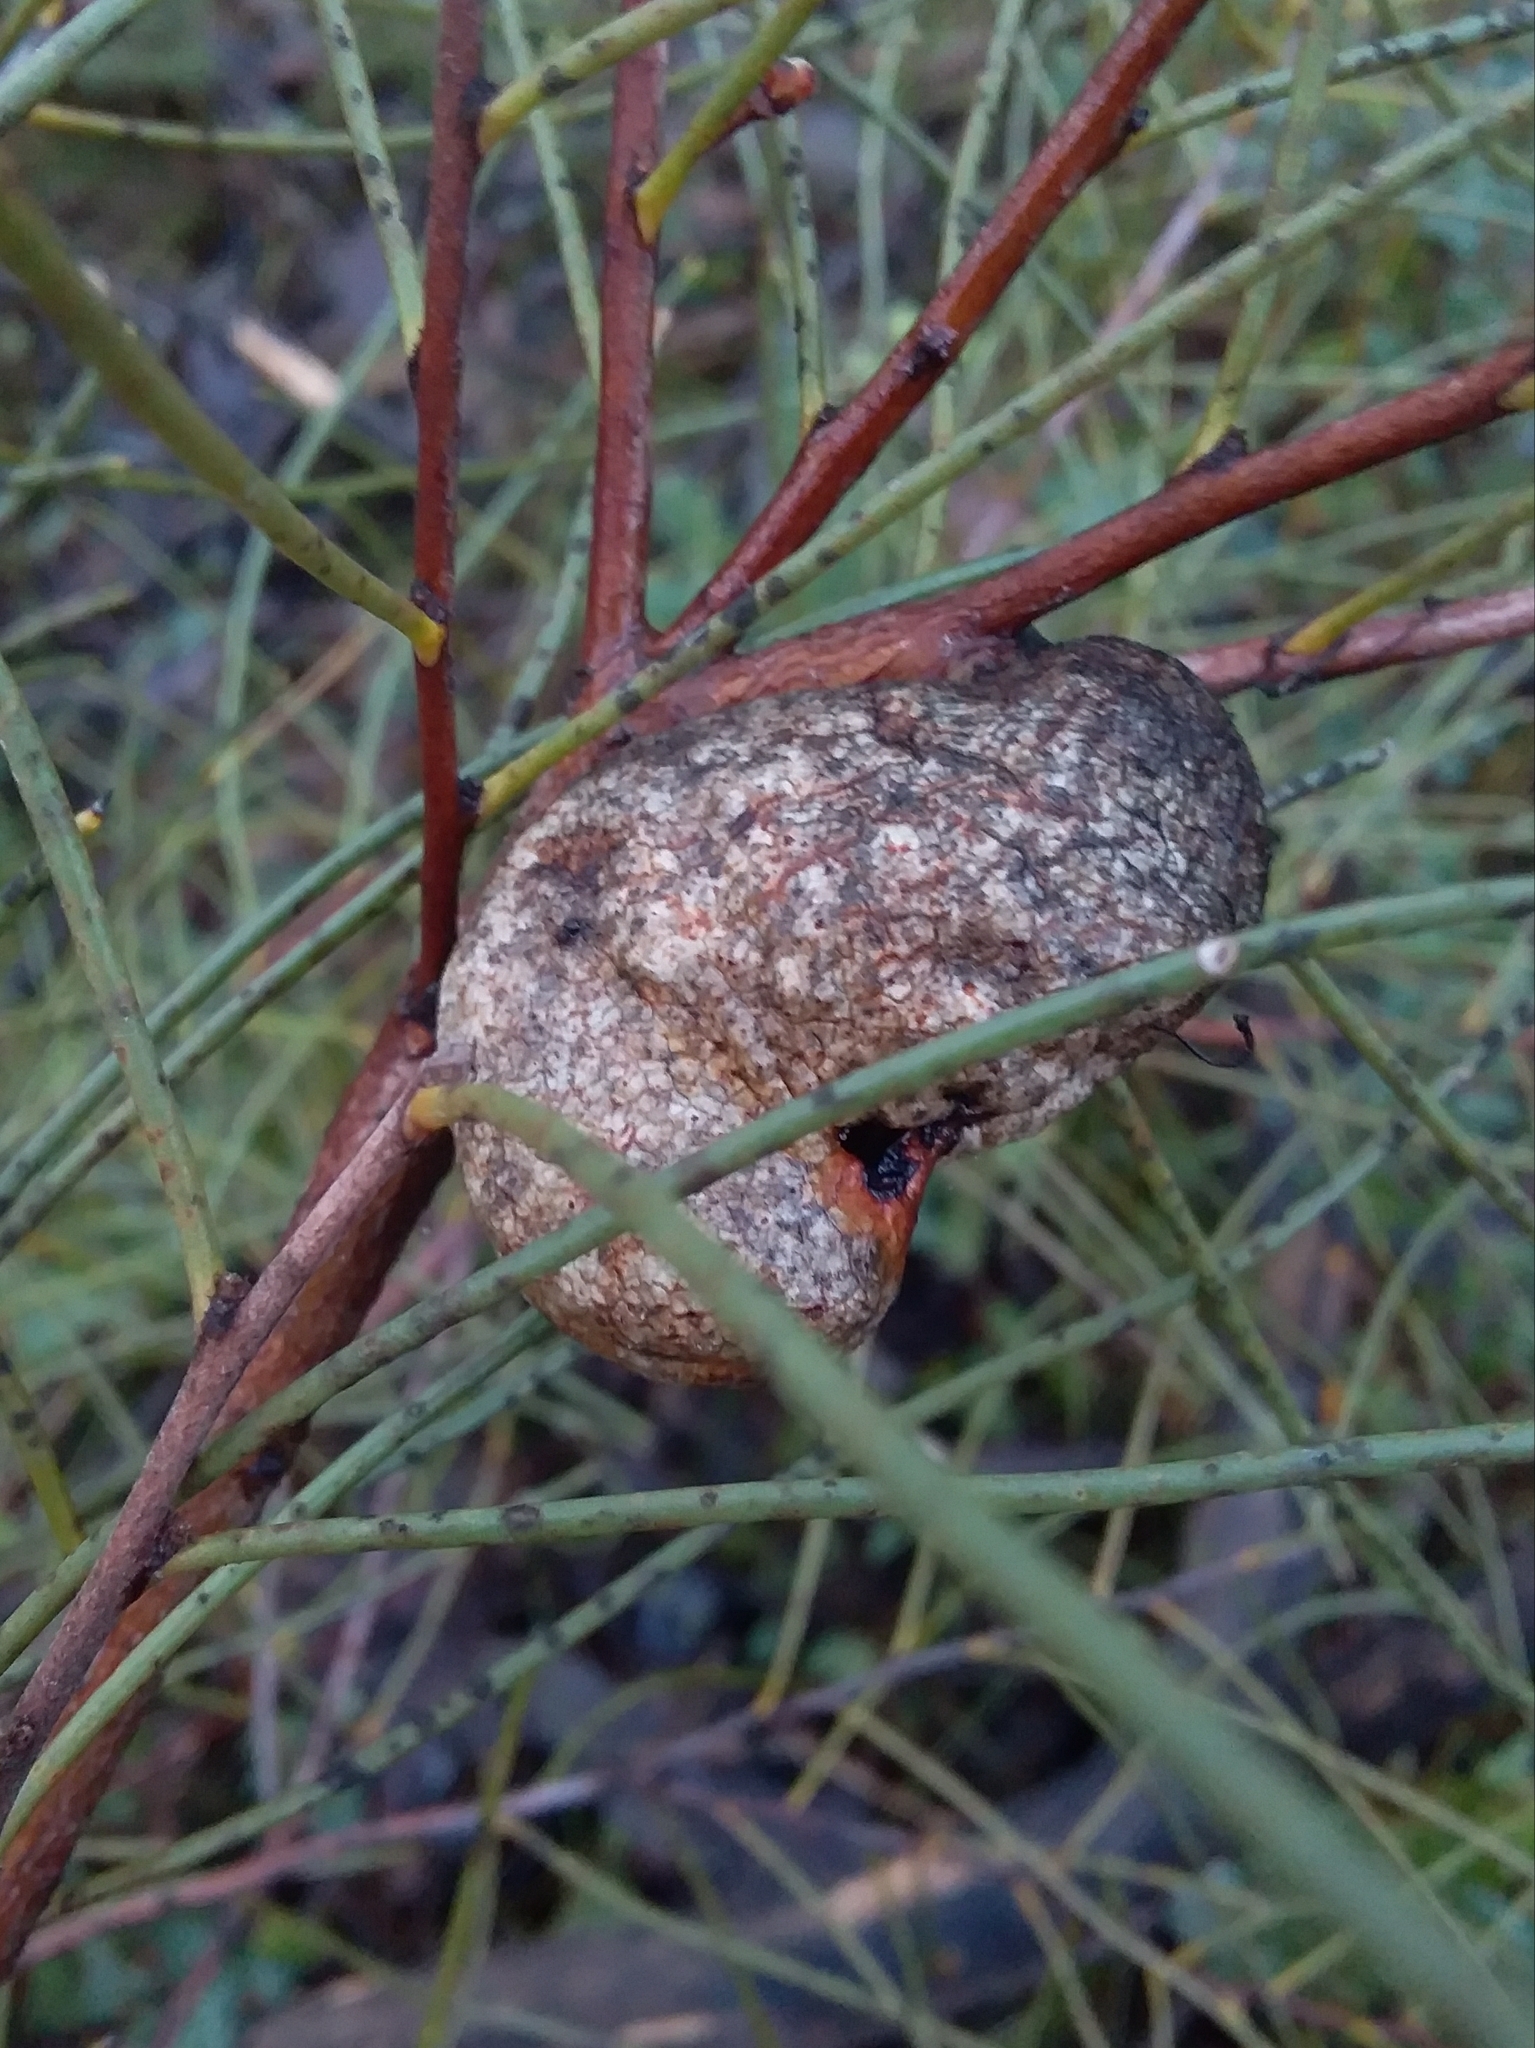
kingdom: Plantae
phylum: Tracheophyta
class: Magnoliopsida
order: Proteales
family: Proteaceae
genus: Hakea
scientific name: Hakea rostrata
